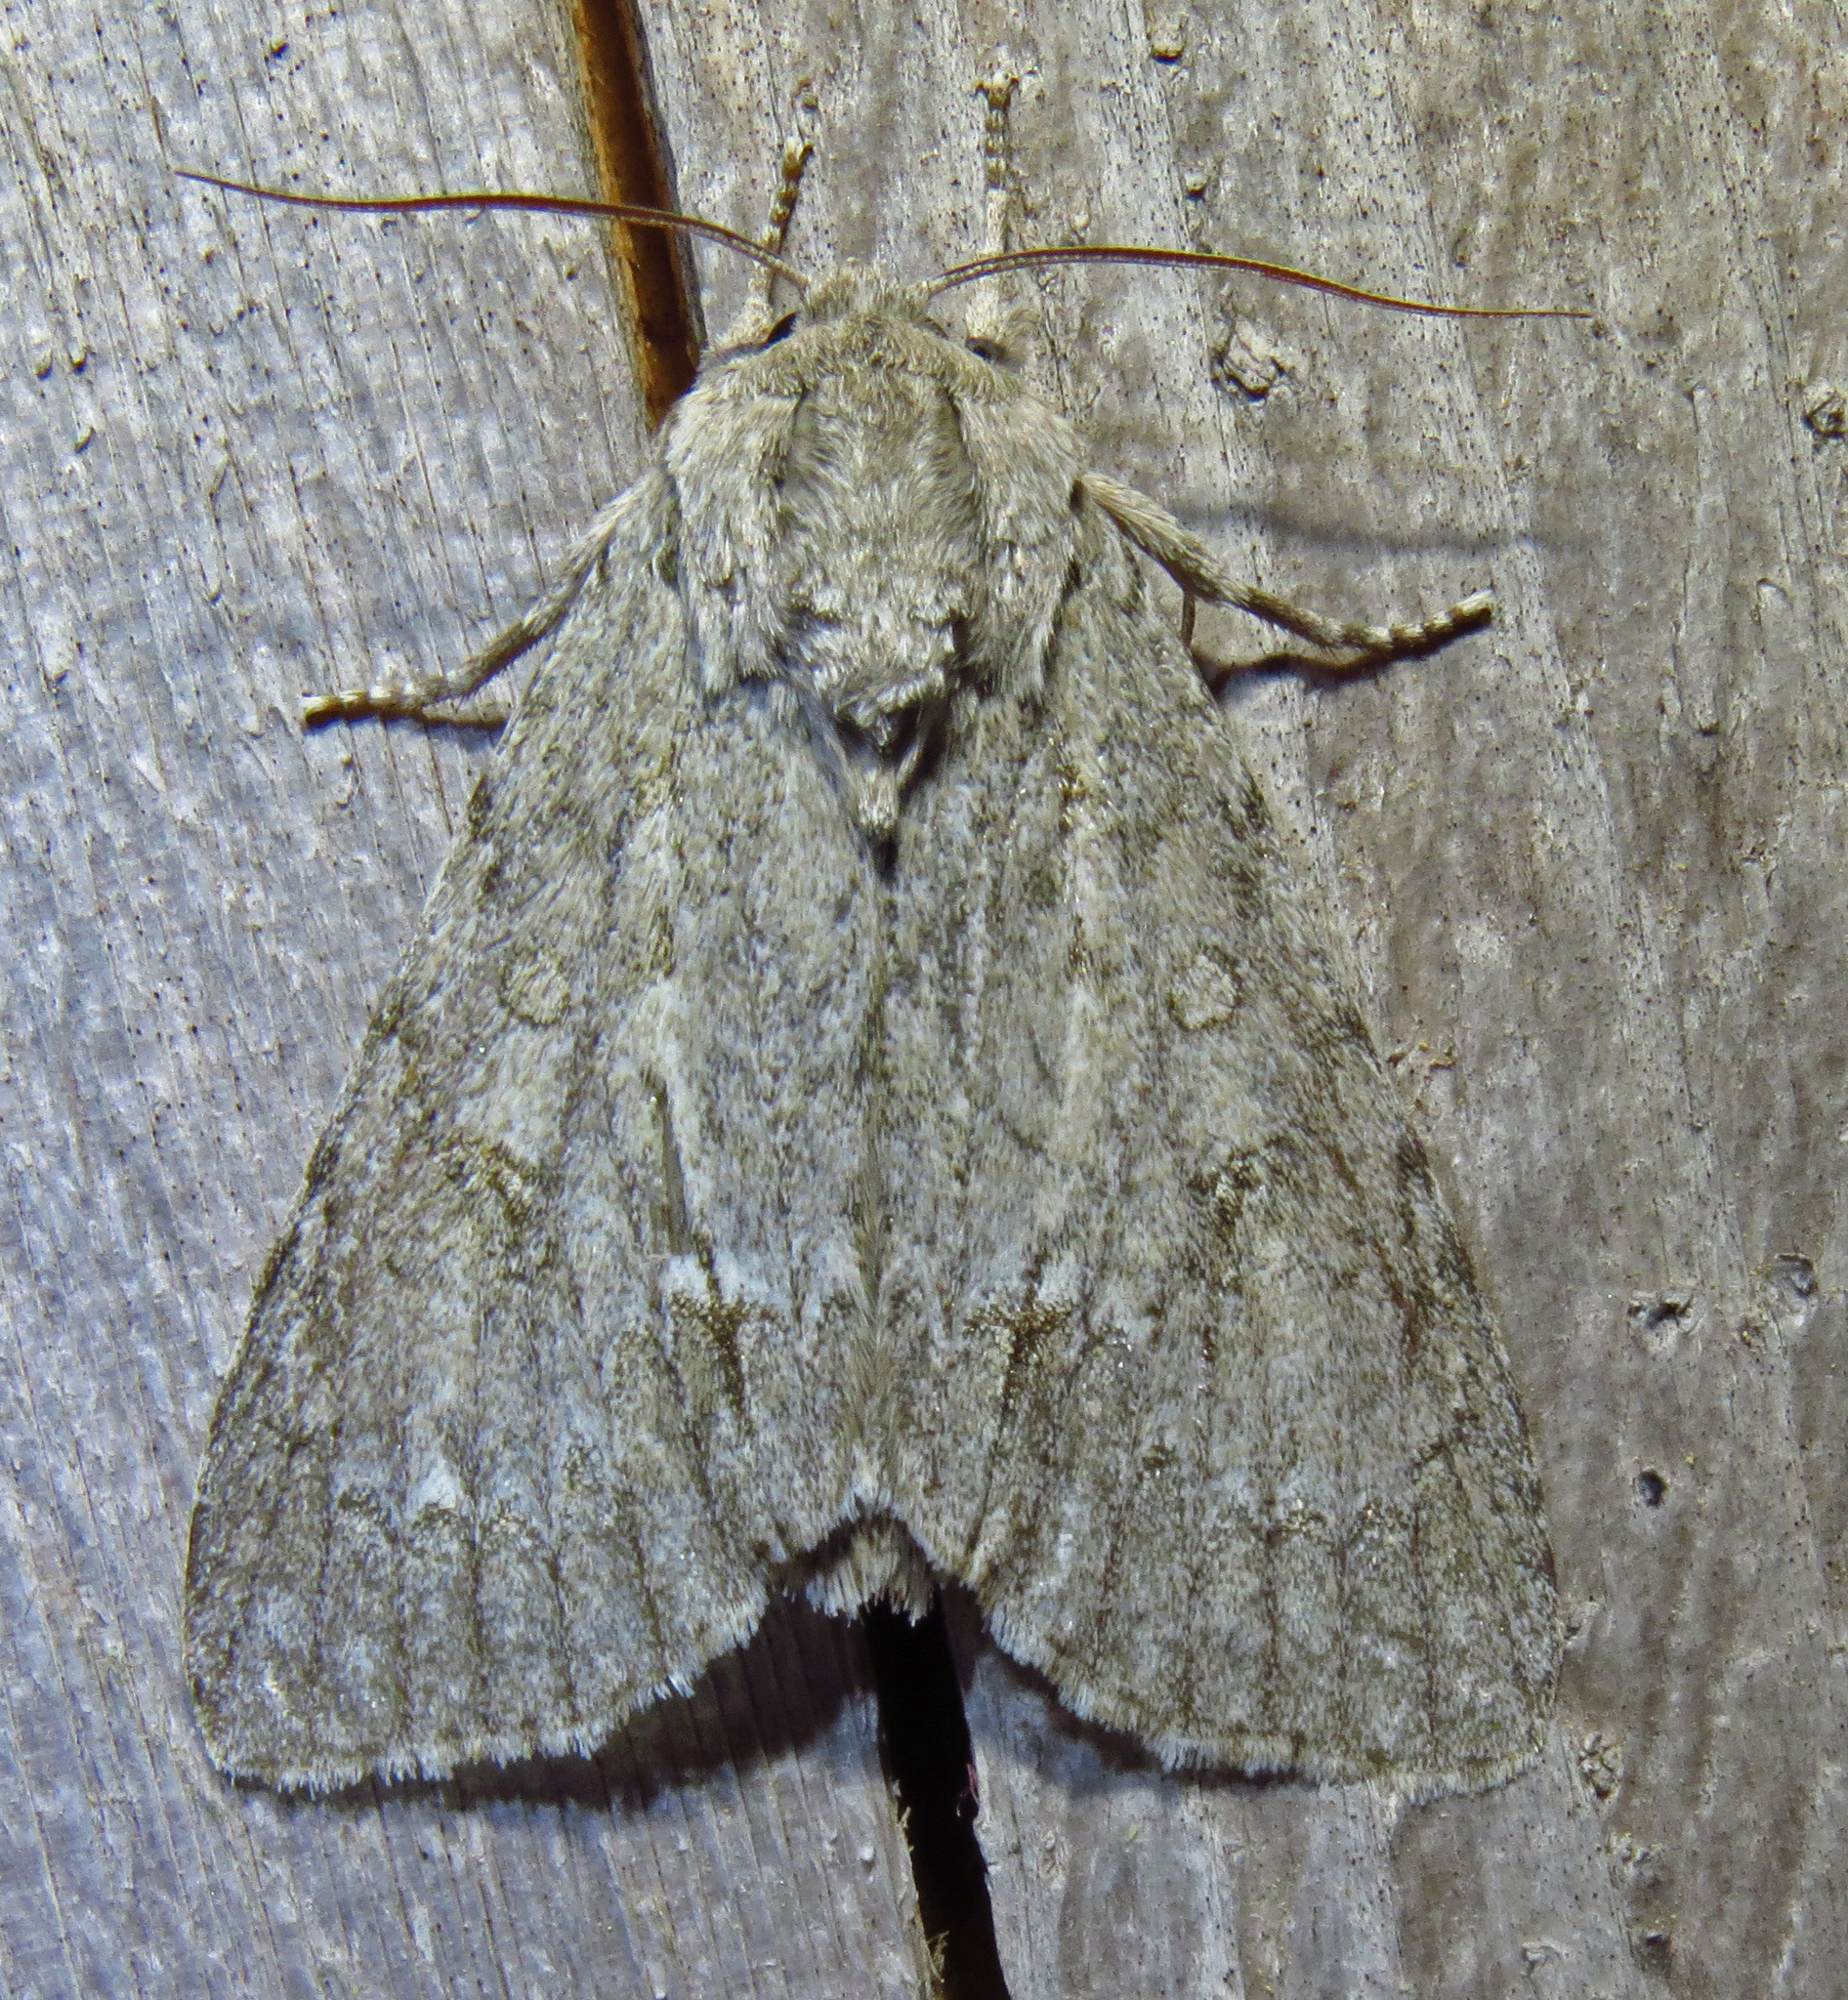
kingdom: Animalia
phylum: Arthropoda
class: Insecta
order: Lepidoptera
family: Noctuidae
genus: Acronicta
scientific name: Acronicta americana
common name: American dagger
